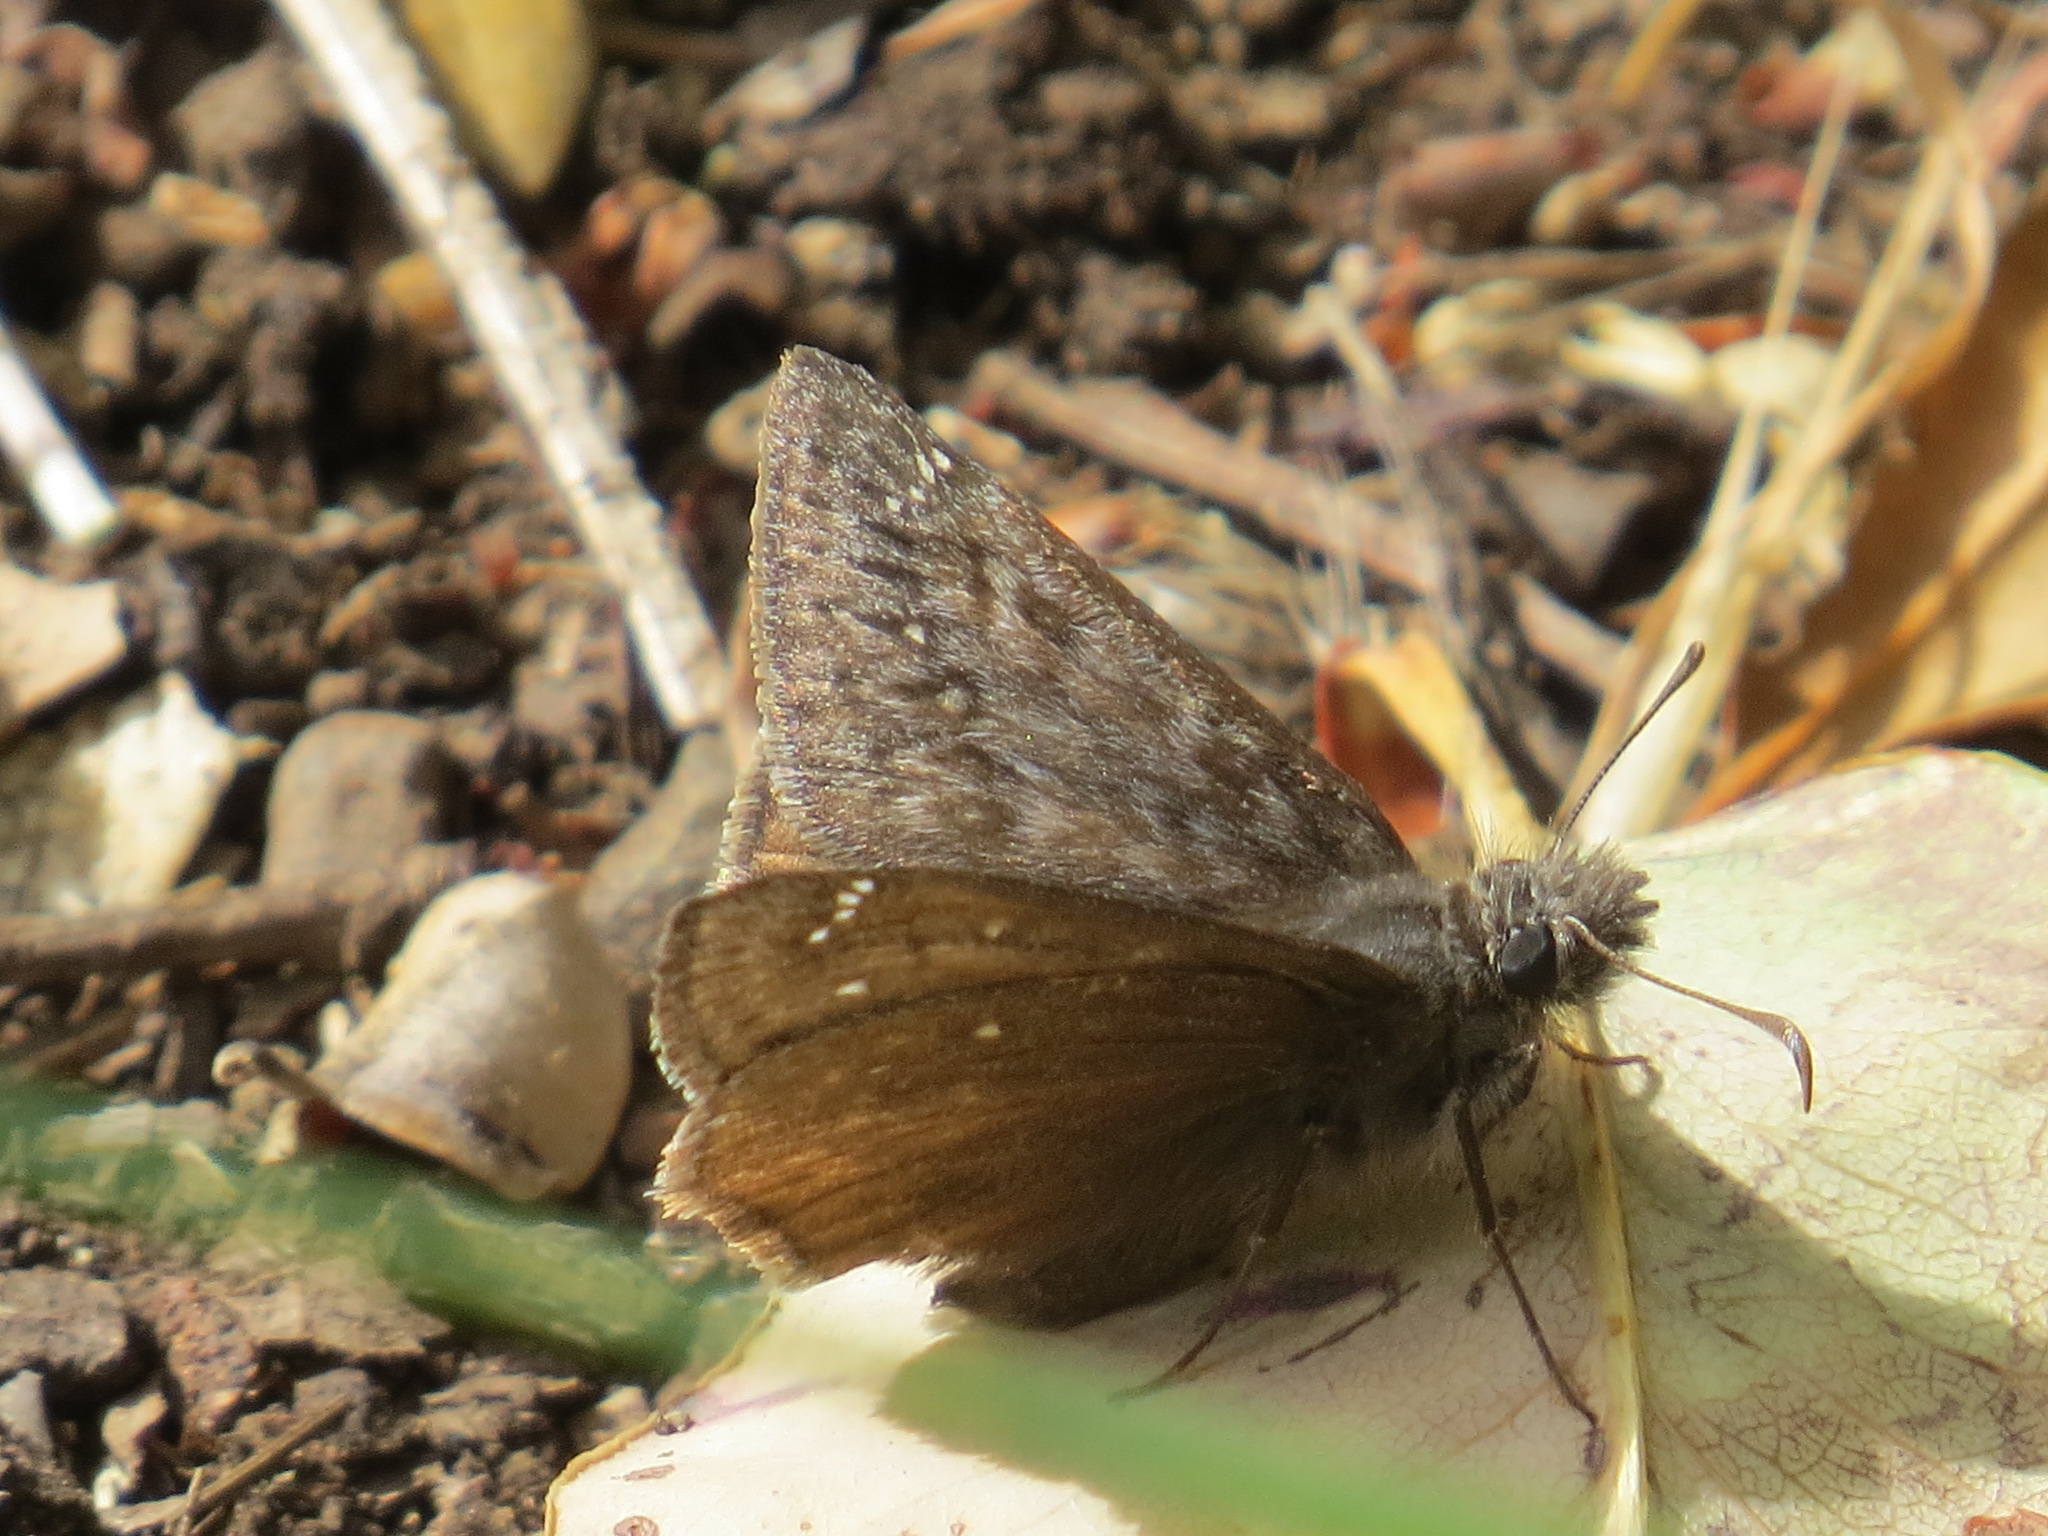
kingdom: Animalia
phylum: Arthropoda
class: Insecta
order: Lepidoptera
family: Hesperiidae
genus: Erynnis
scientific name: Erynnis propertius
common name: Propertius duskywing
